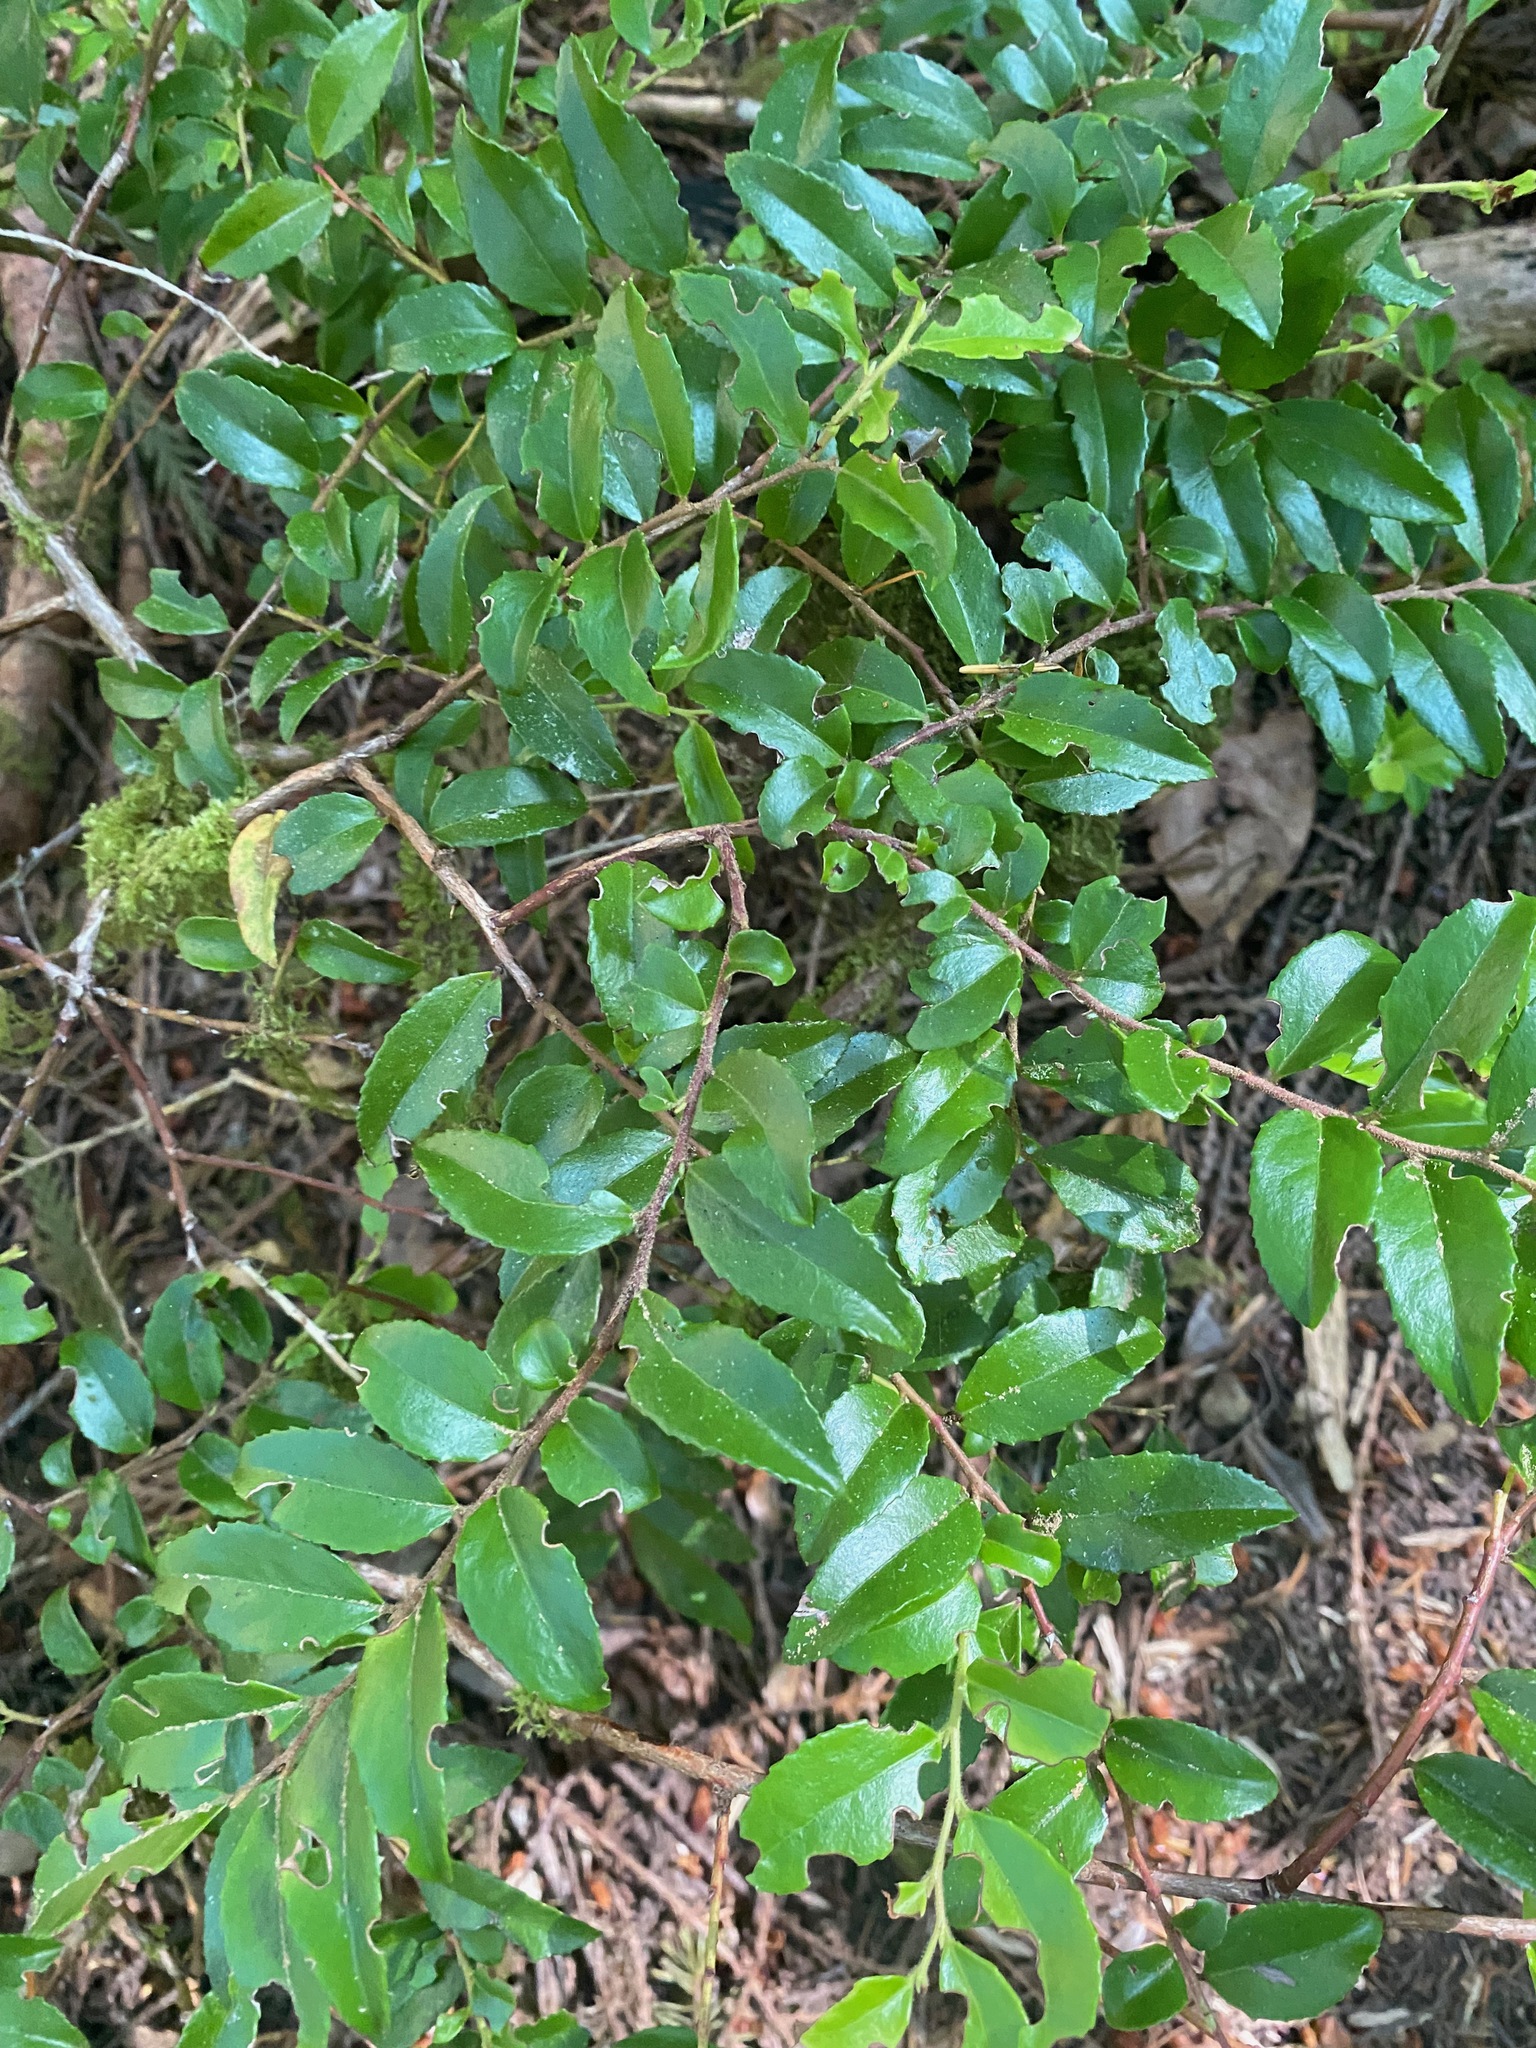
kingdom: Plantae
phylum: Tracheophyta
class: Magnoliopsida
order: Ericales
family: Ericaceae
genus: Vaccinium
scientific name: Vaccinium ovatum
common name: California-huckleberry
